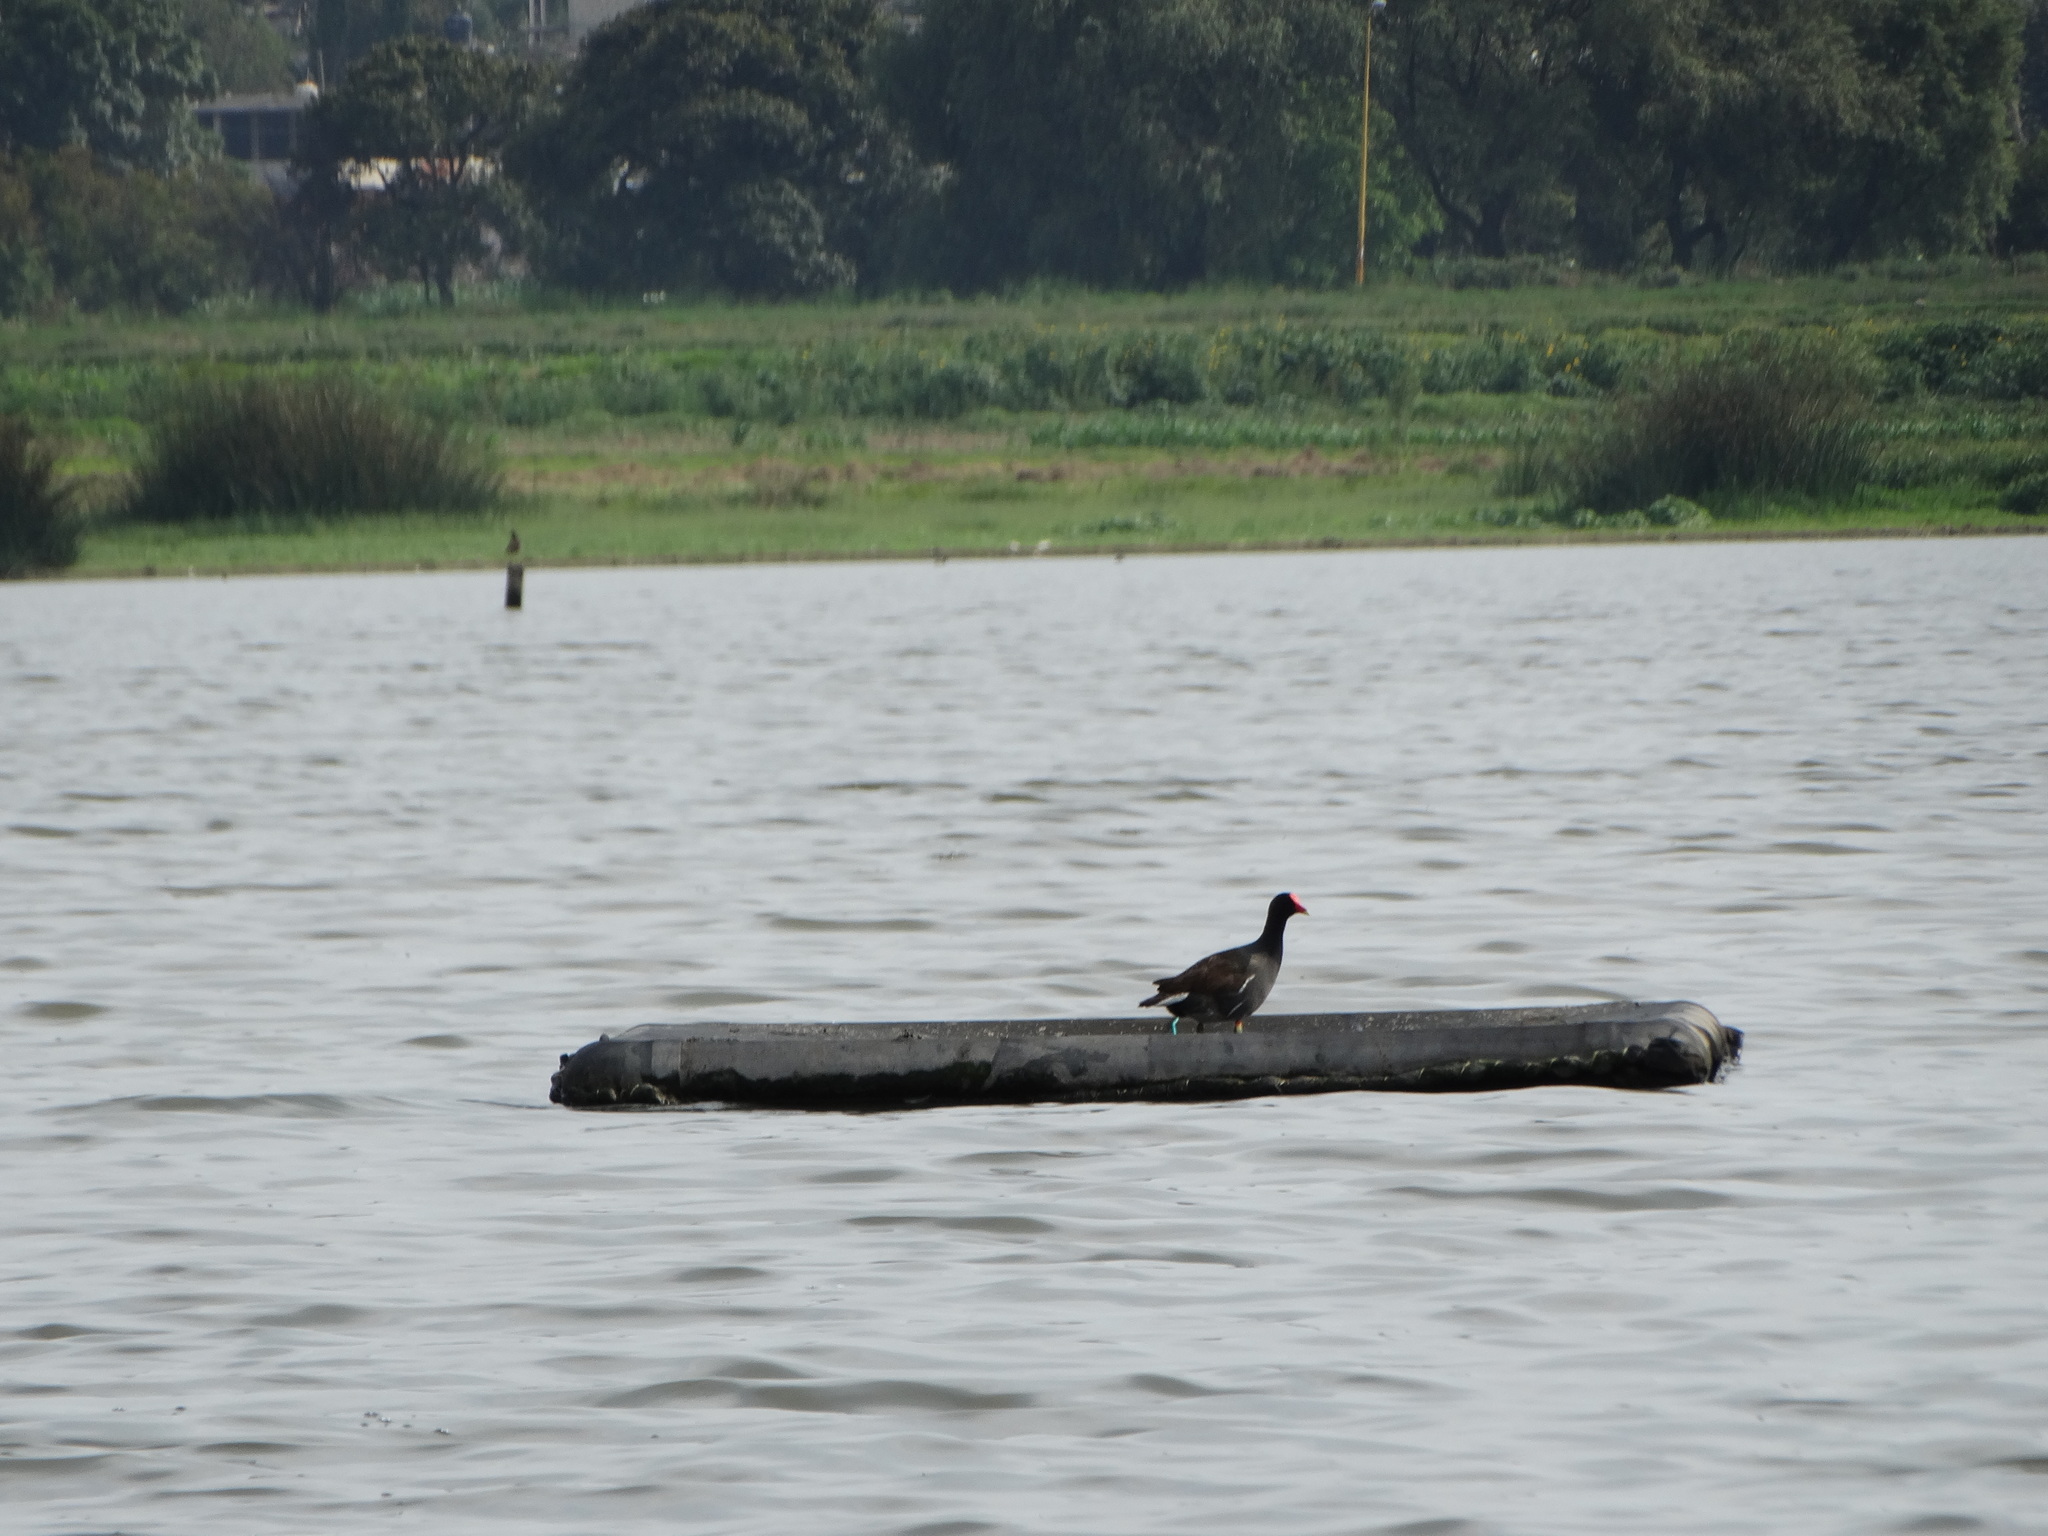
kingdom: Animalia
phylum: Chordata
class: Aves
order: Gruiformes
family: Rallidae
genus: Gallinula
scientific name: Gallinula chloropus
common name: Common moorhen
